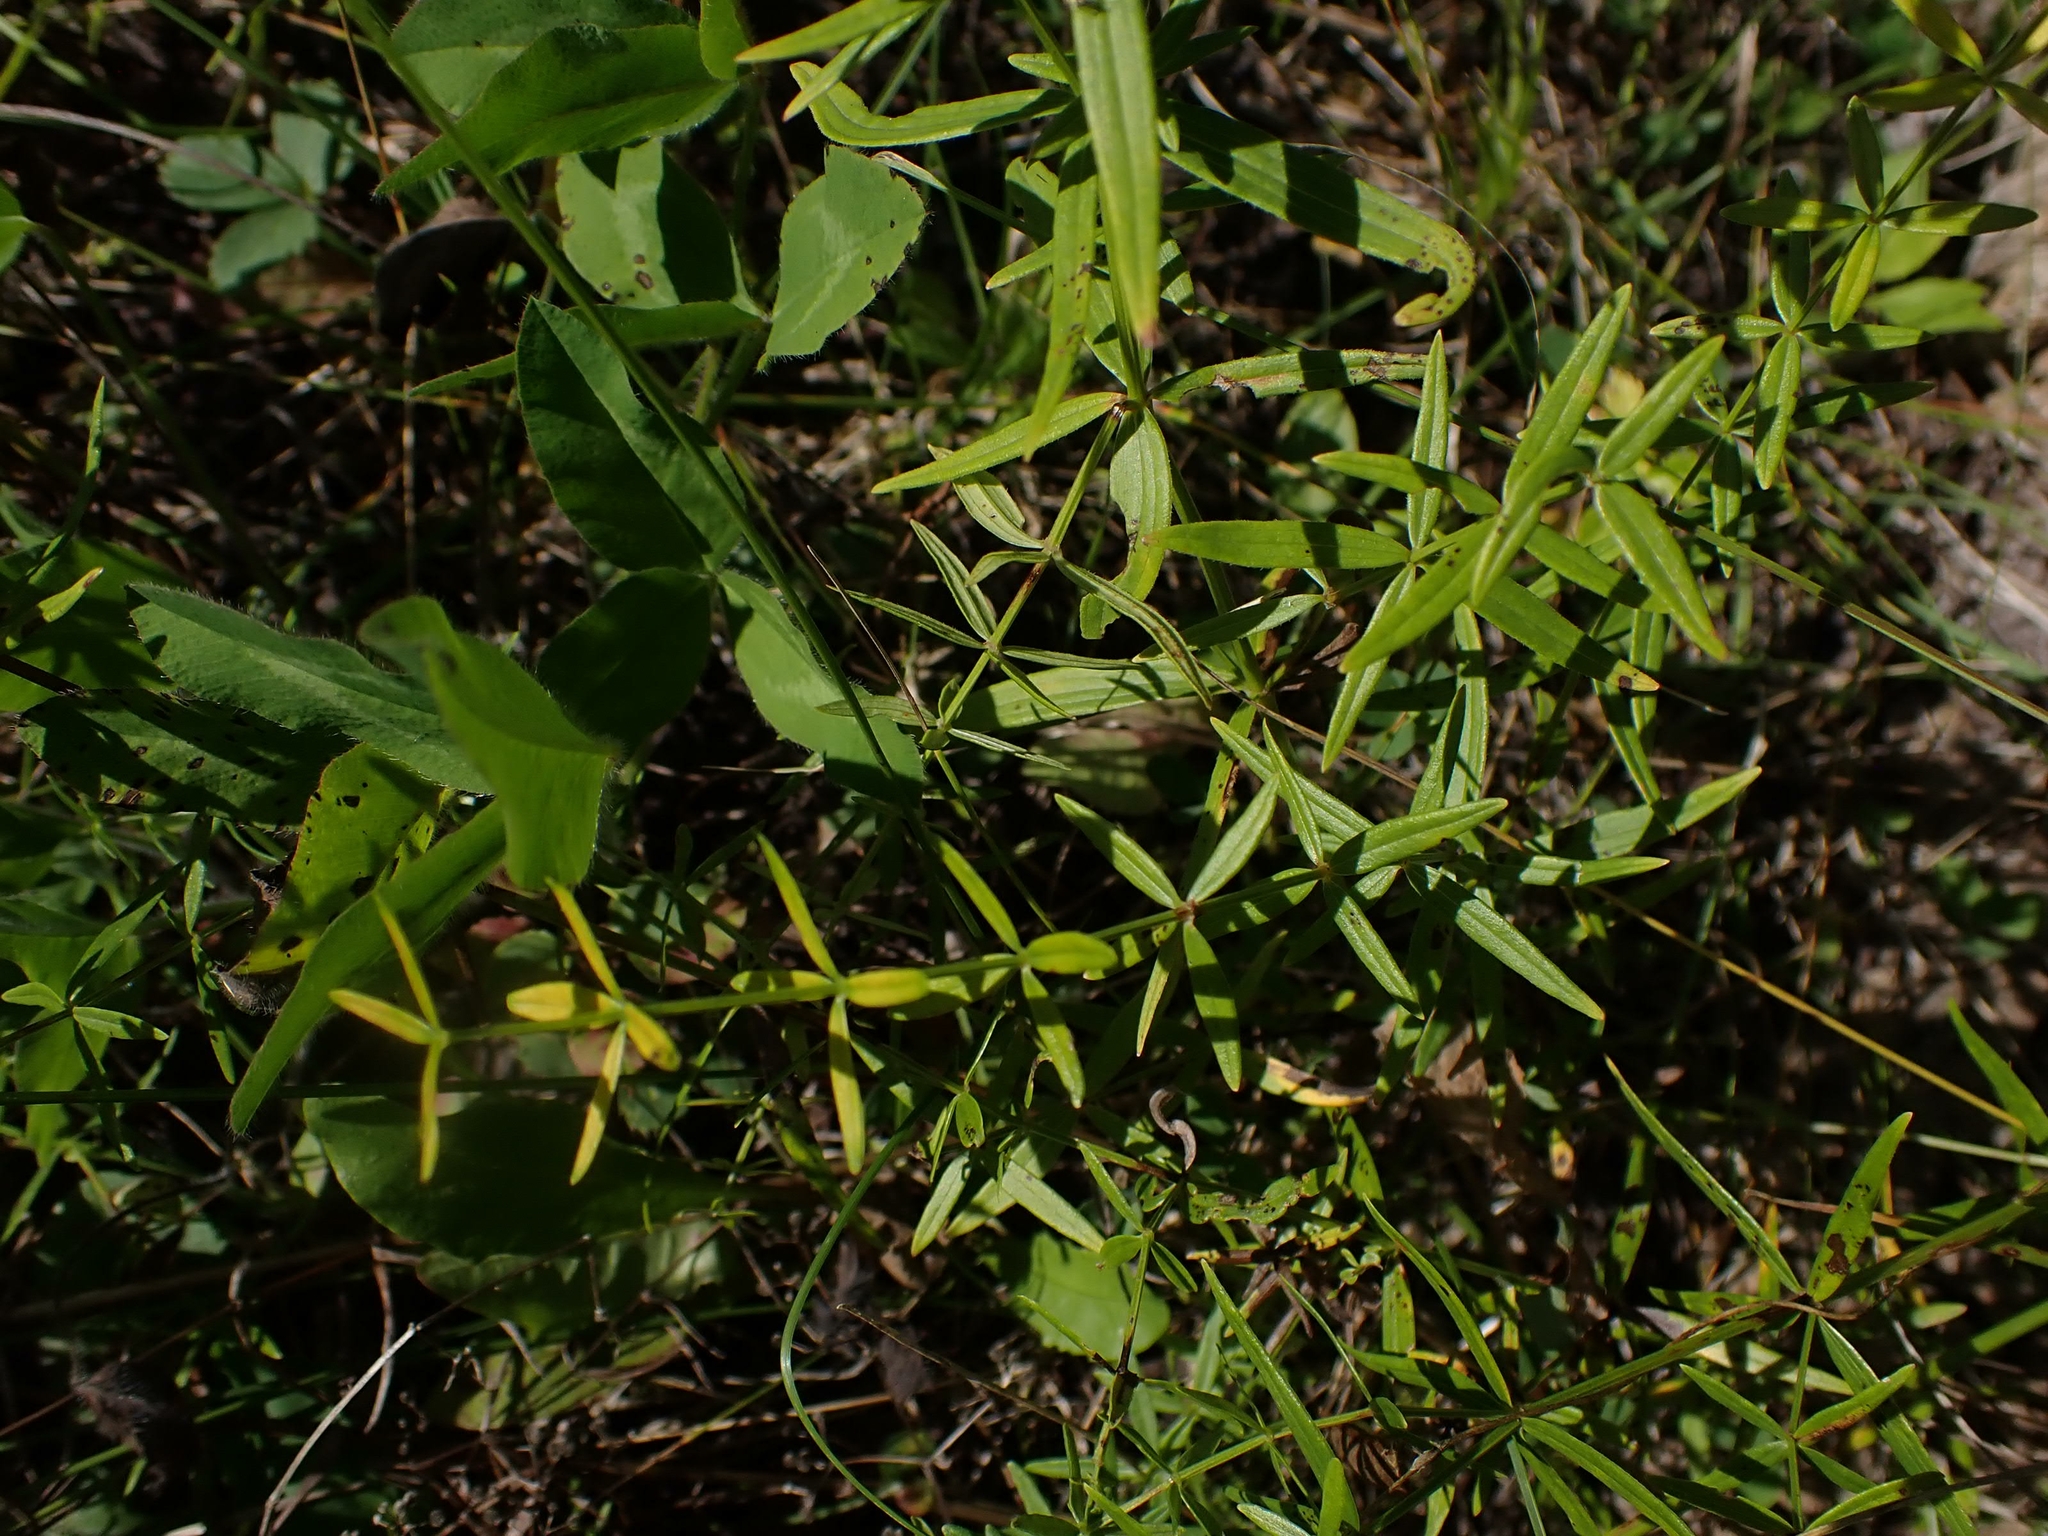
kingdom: Plantae
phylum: Tracheophyta
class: Magnoliopsida
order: Gentianales
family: Rubiaceae
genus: Galium
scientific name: Galium boreale
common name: Northern bedstraw
